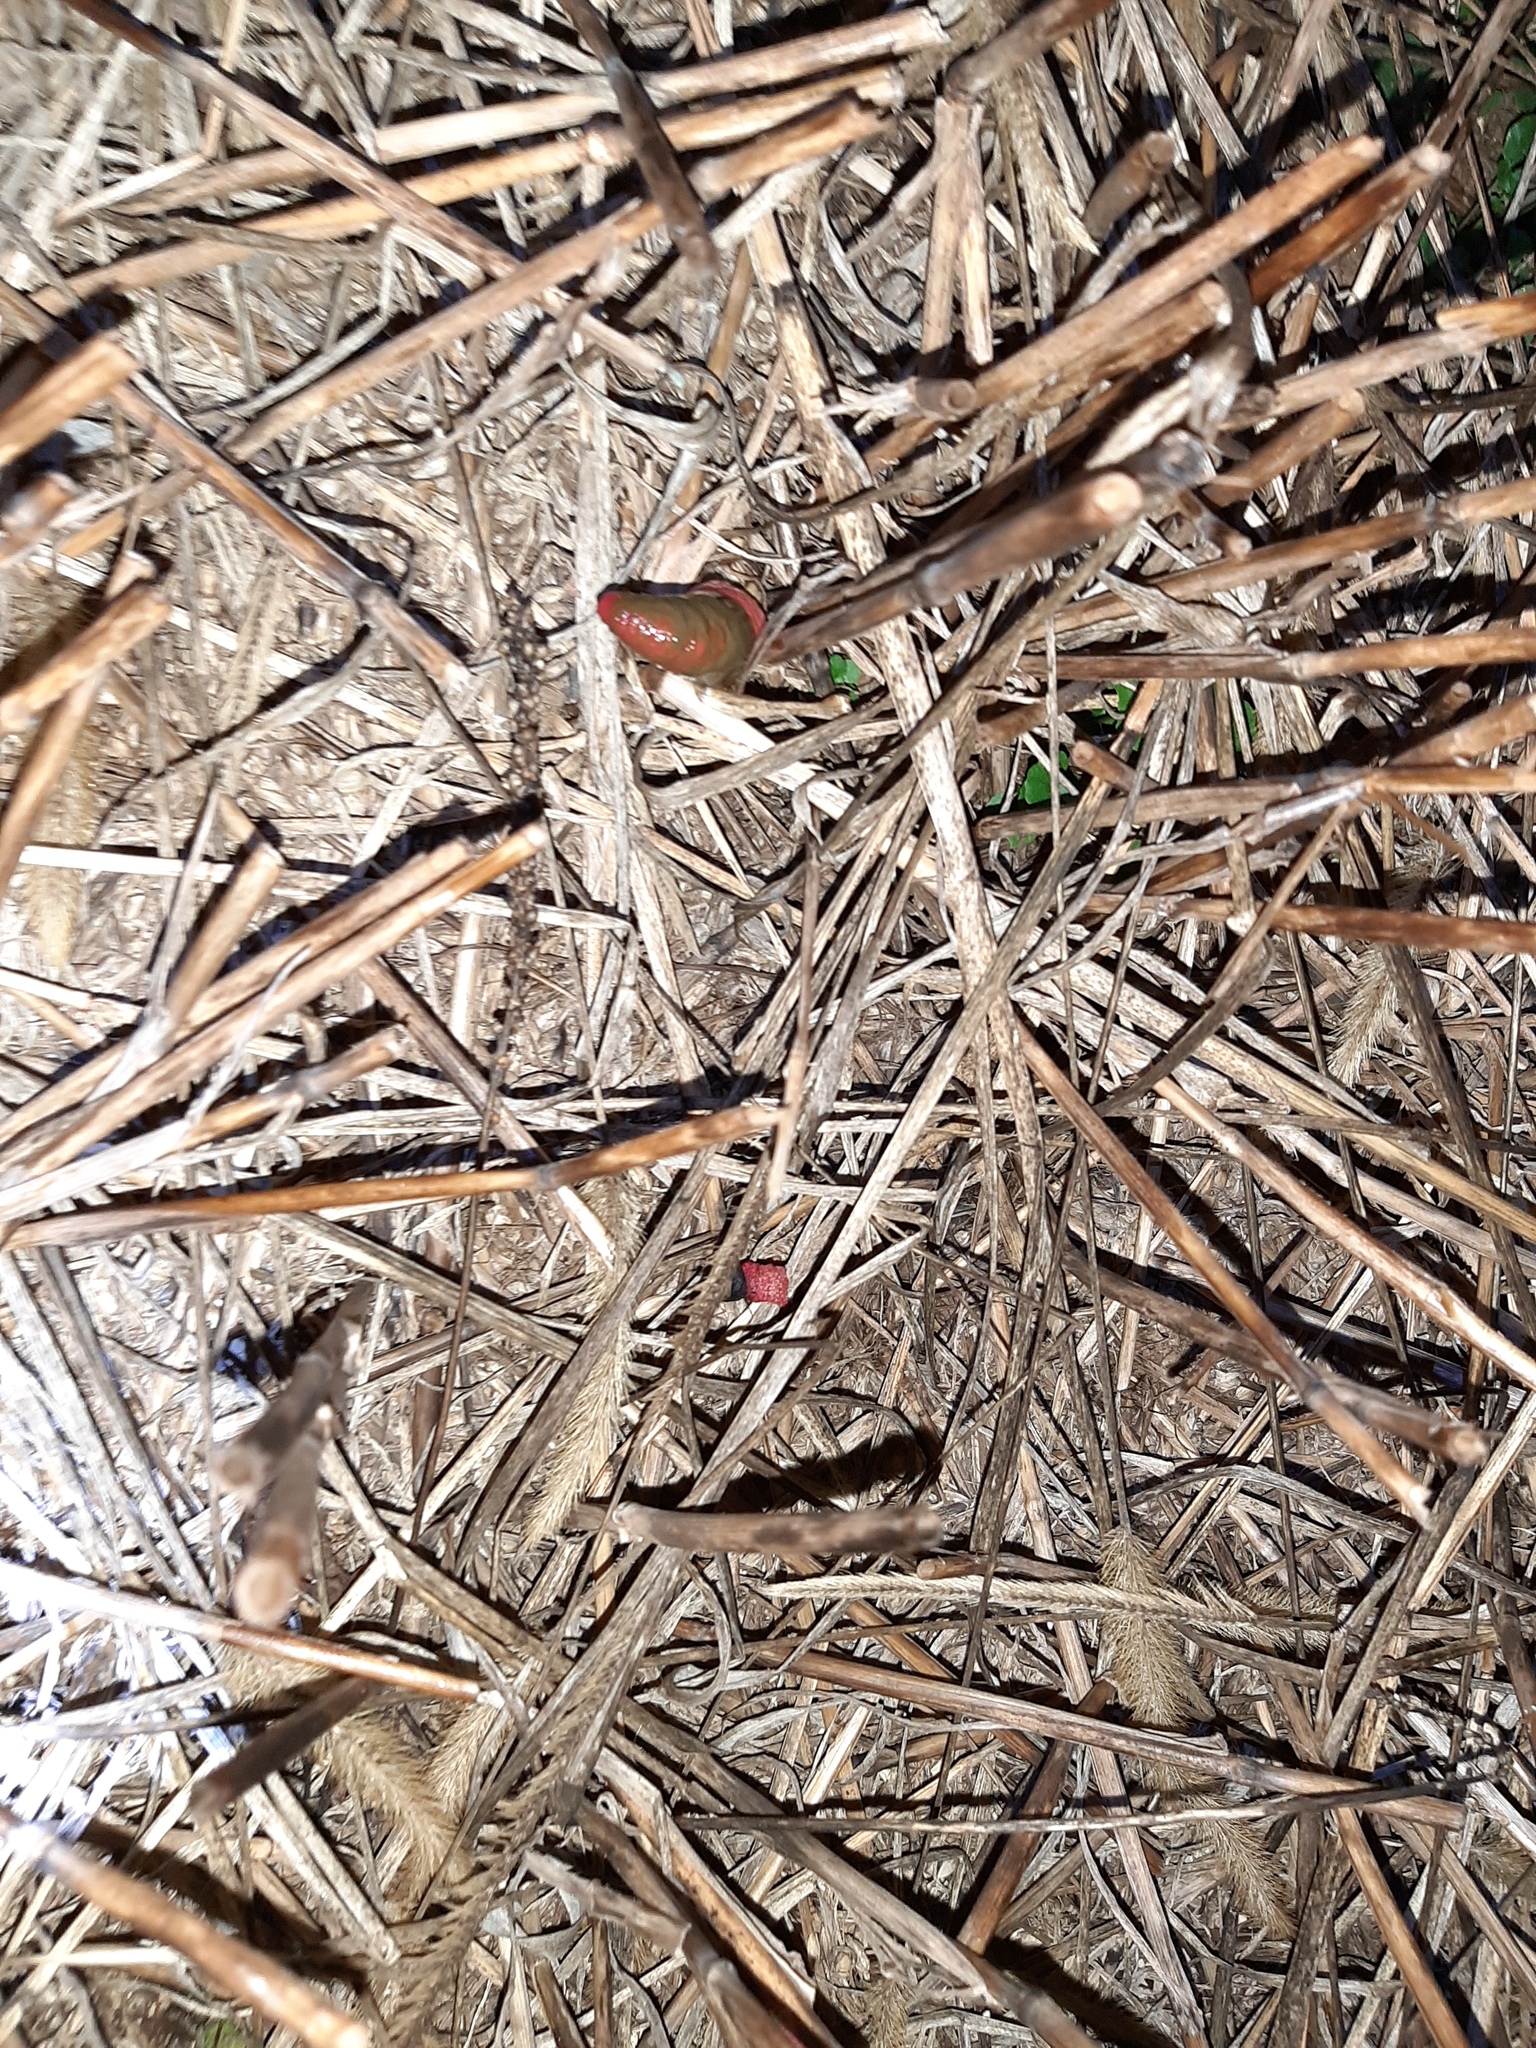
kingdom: Fungi
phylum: Basidiomycota
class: Agaricomycetes
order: Phallales
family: Phallaceae
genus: Mutinus
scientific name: Mutinus elegans
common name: Devil's dipstick
